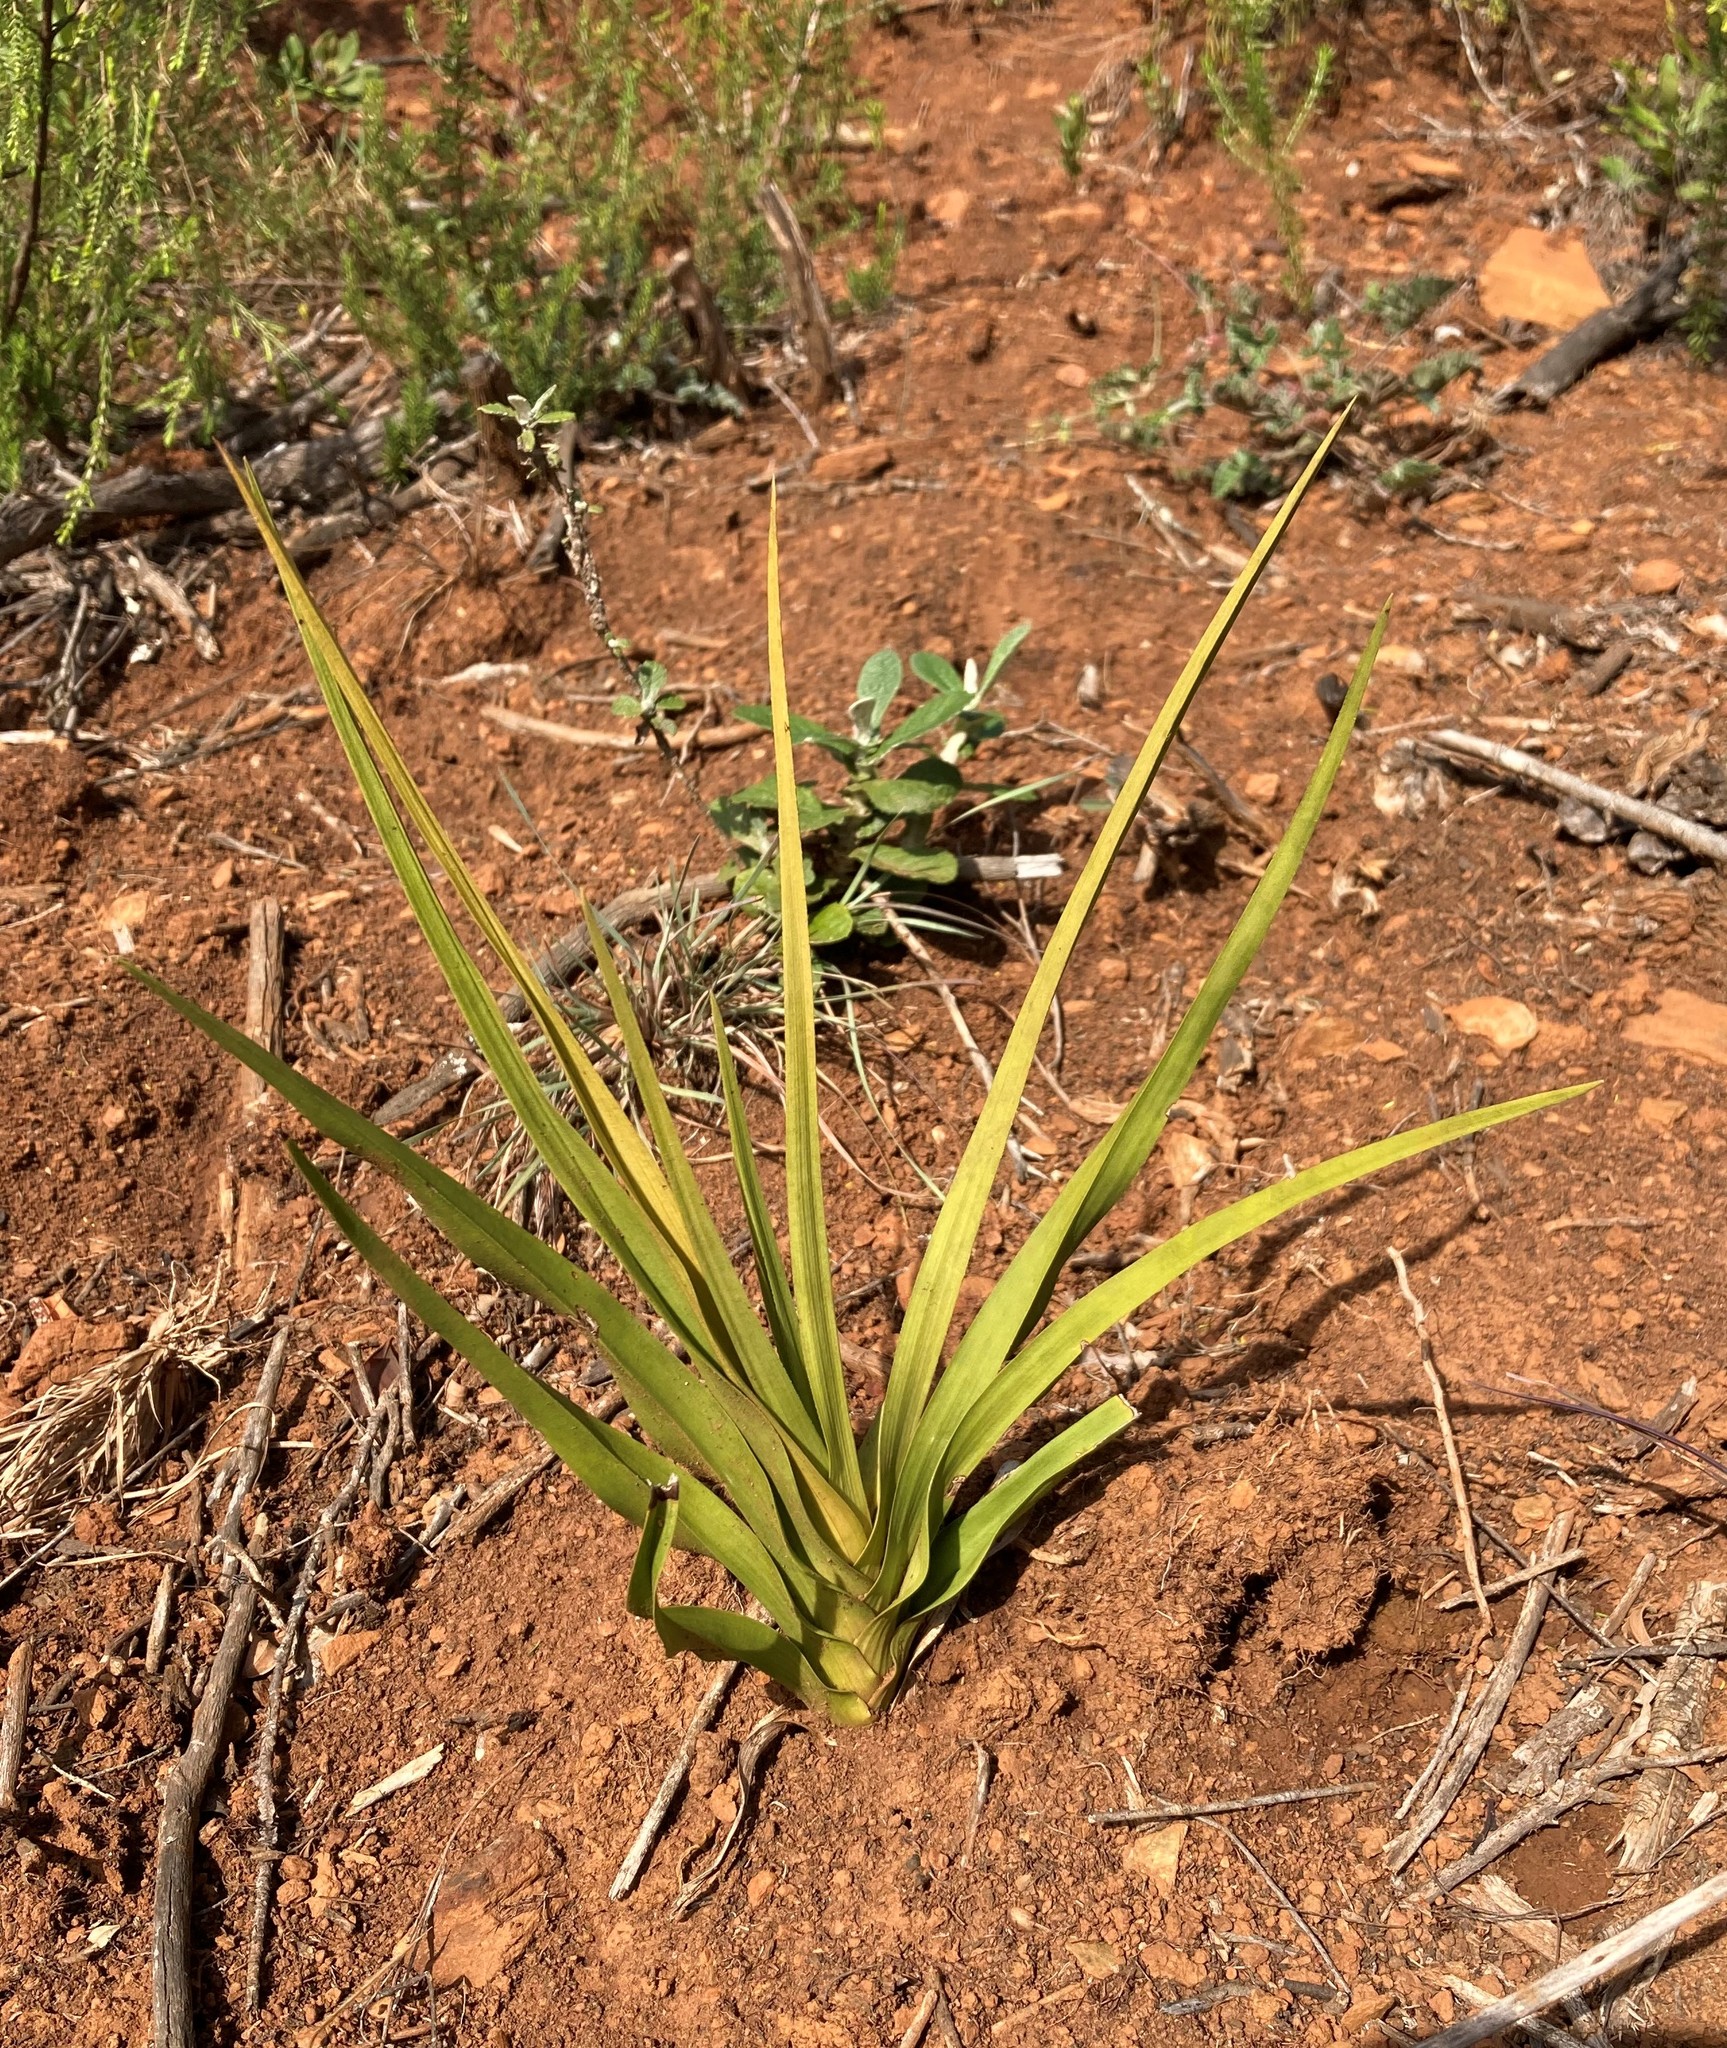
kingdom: Plantae
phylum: Tracheophyta
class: Liliopsida
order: Asparagales
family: Orchidaceae
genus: Eulophia
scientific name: Eulophia cochlearis
